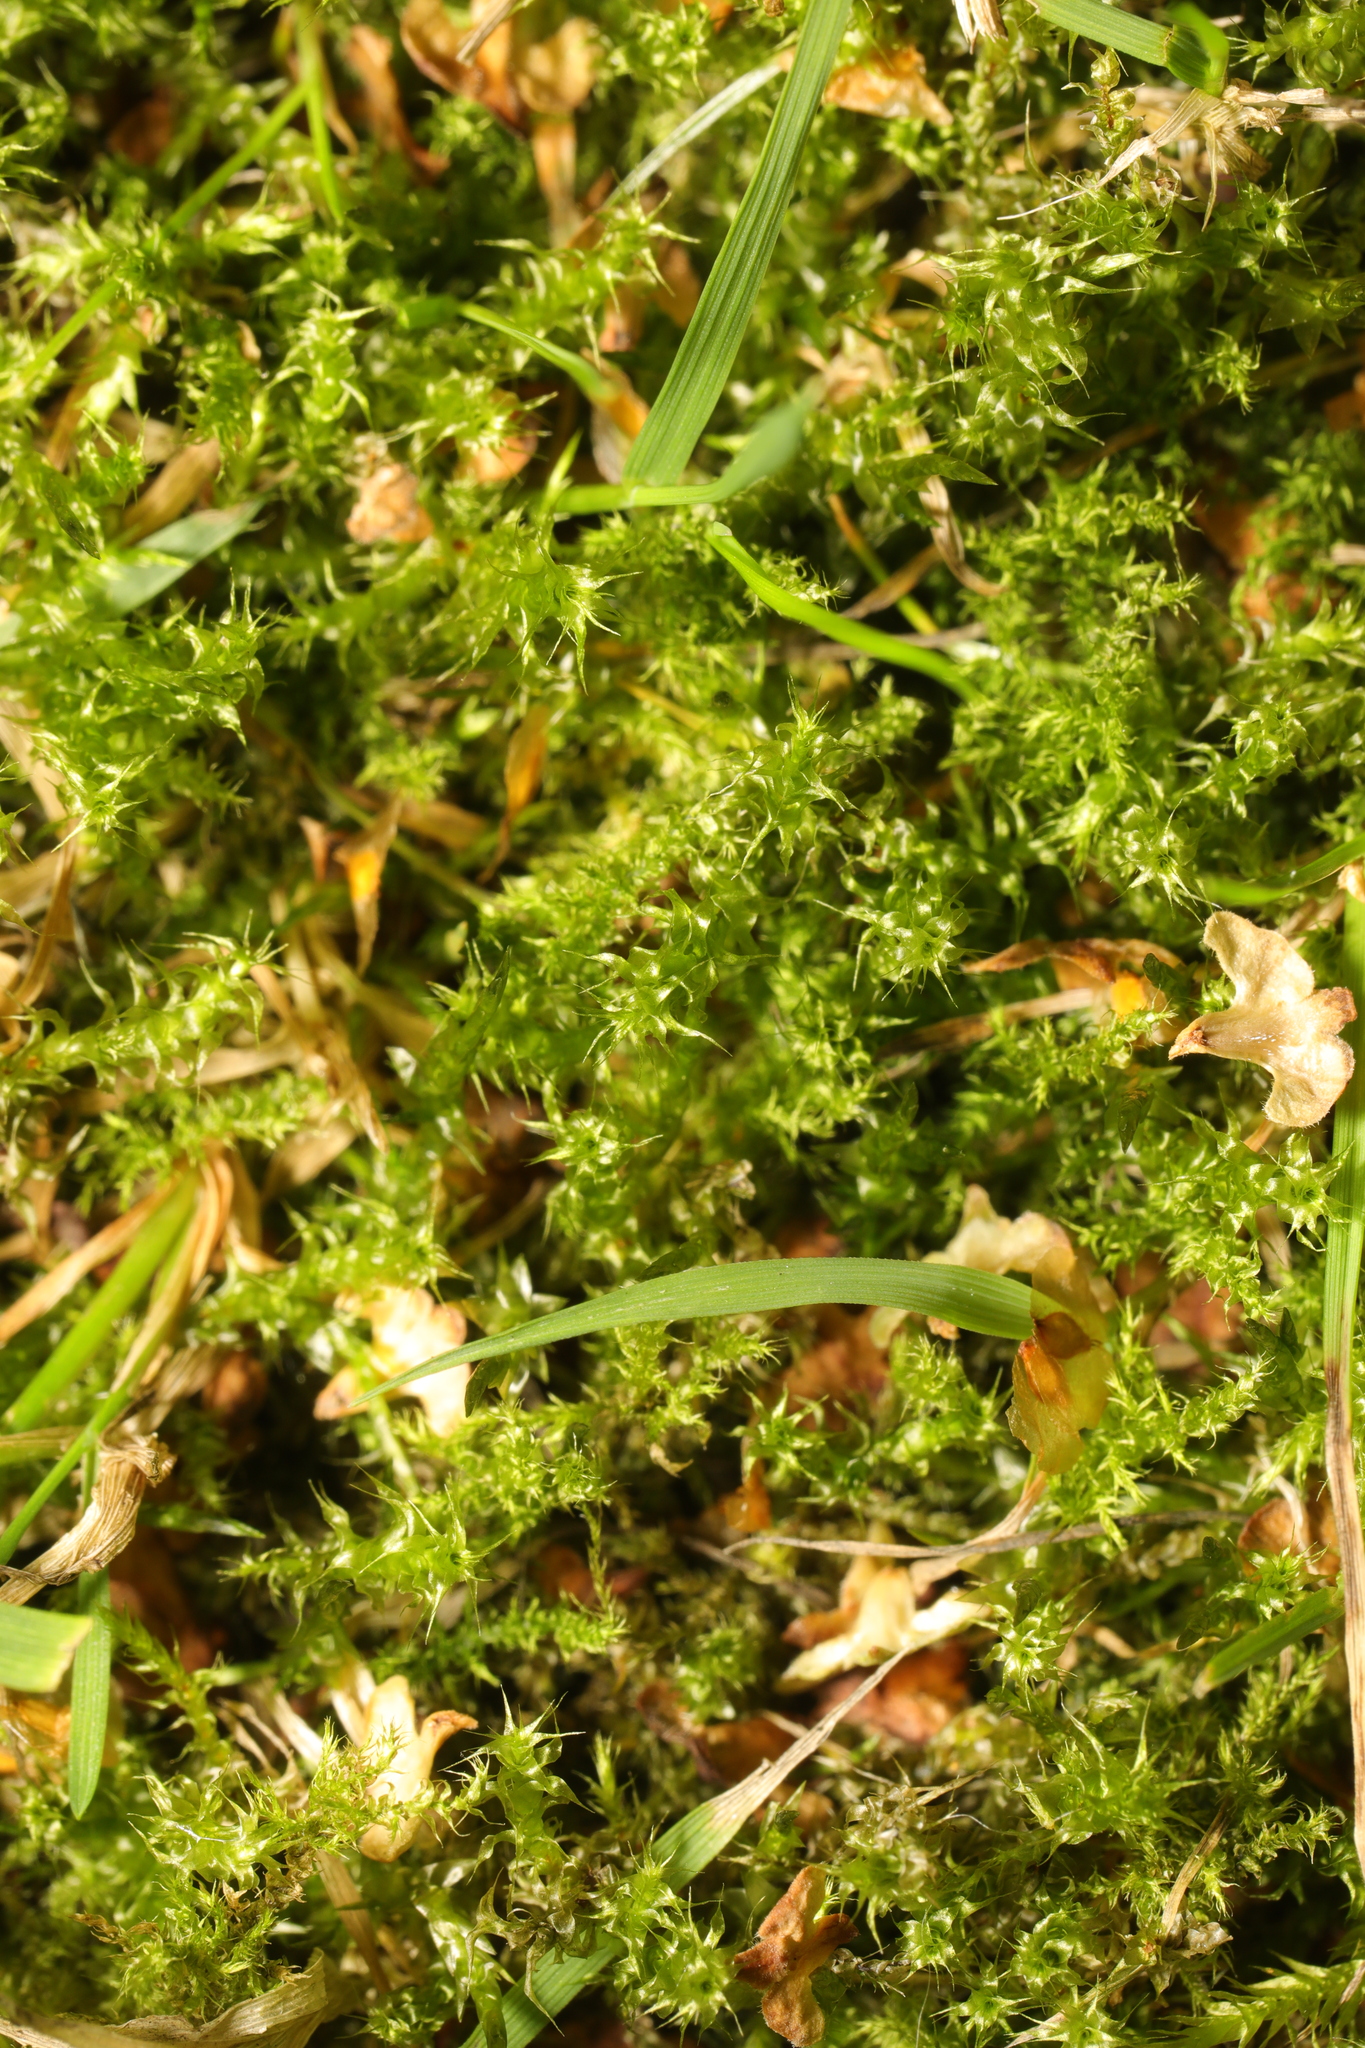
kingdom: Plantae
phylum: Bryophyta
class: Bryopsida
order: Hypnales
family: Hylocomiaceae
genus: Rhytidiadelphus
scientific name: Rhytidiadelphus squarrosus
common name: Springy turf-moss
